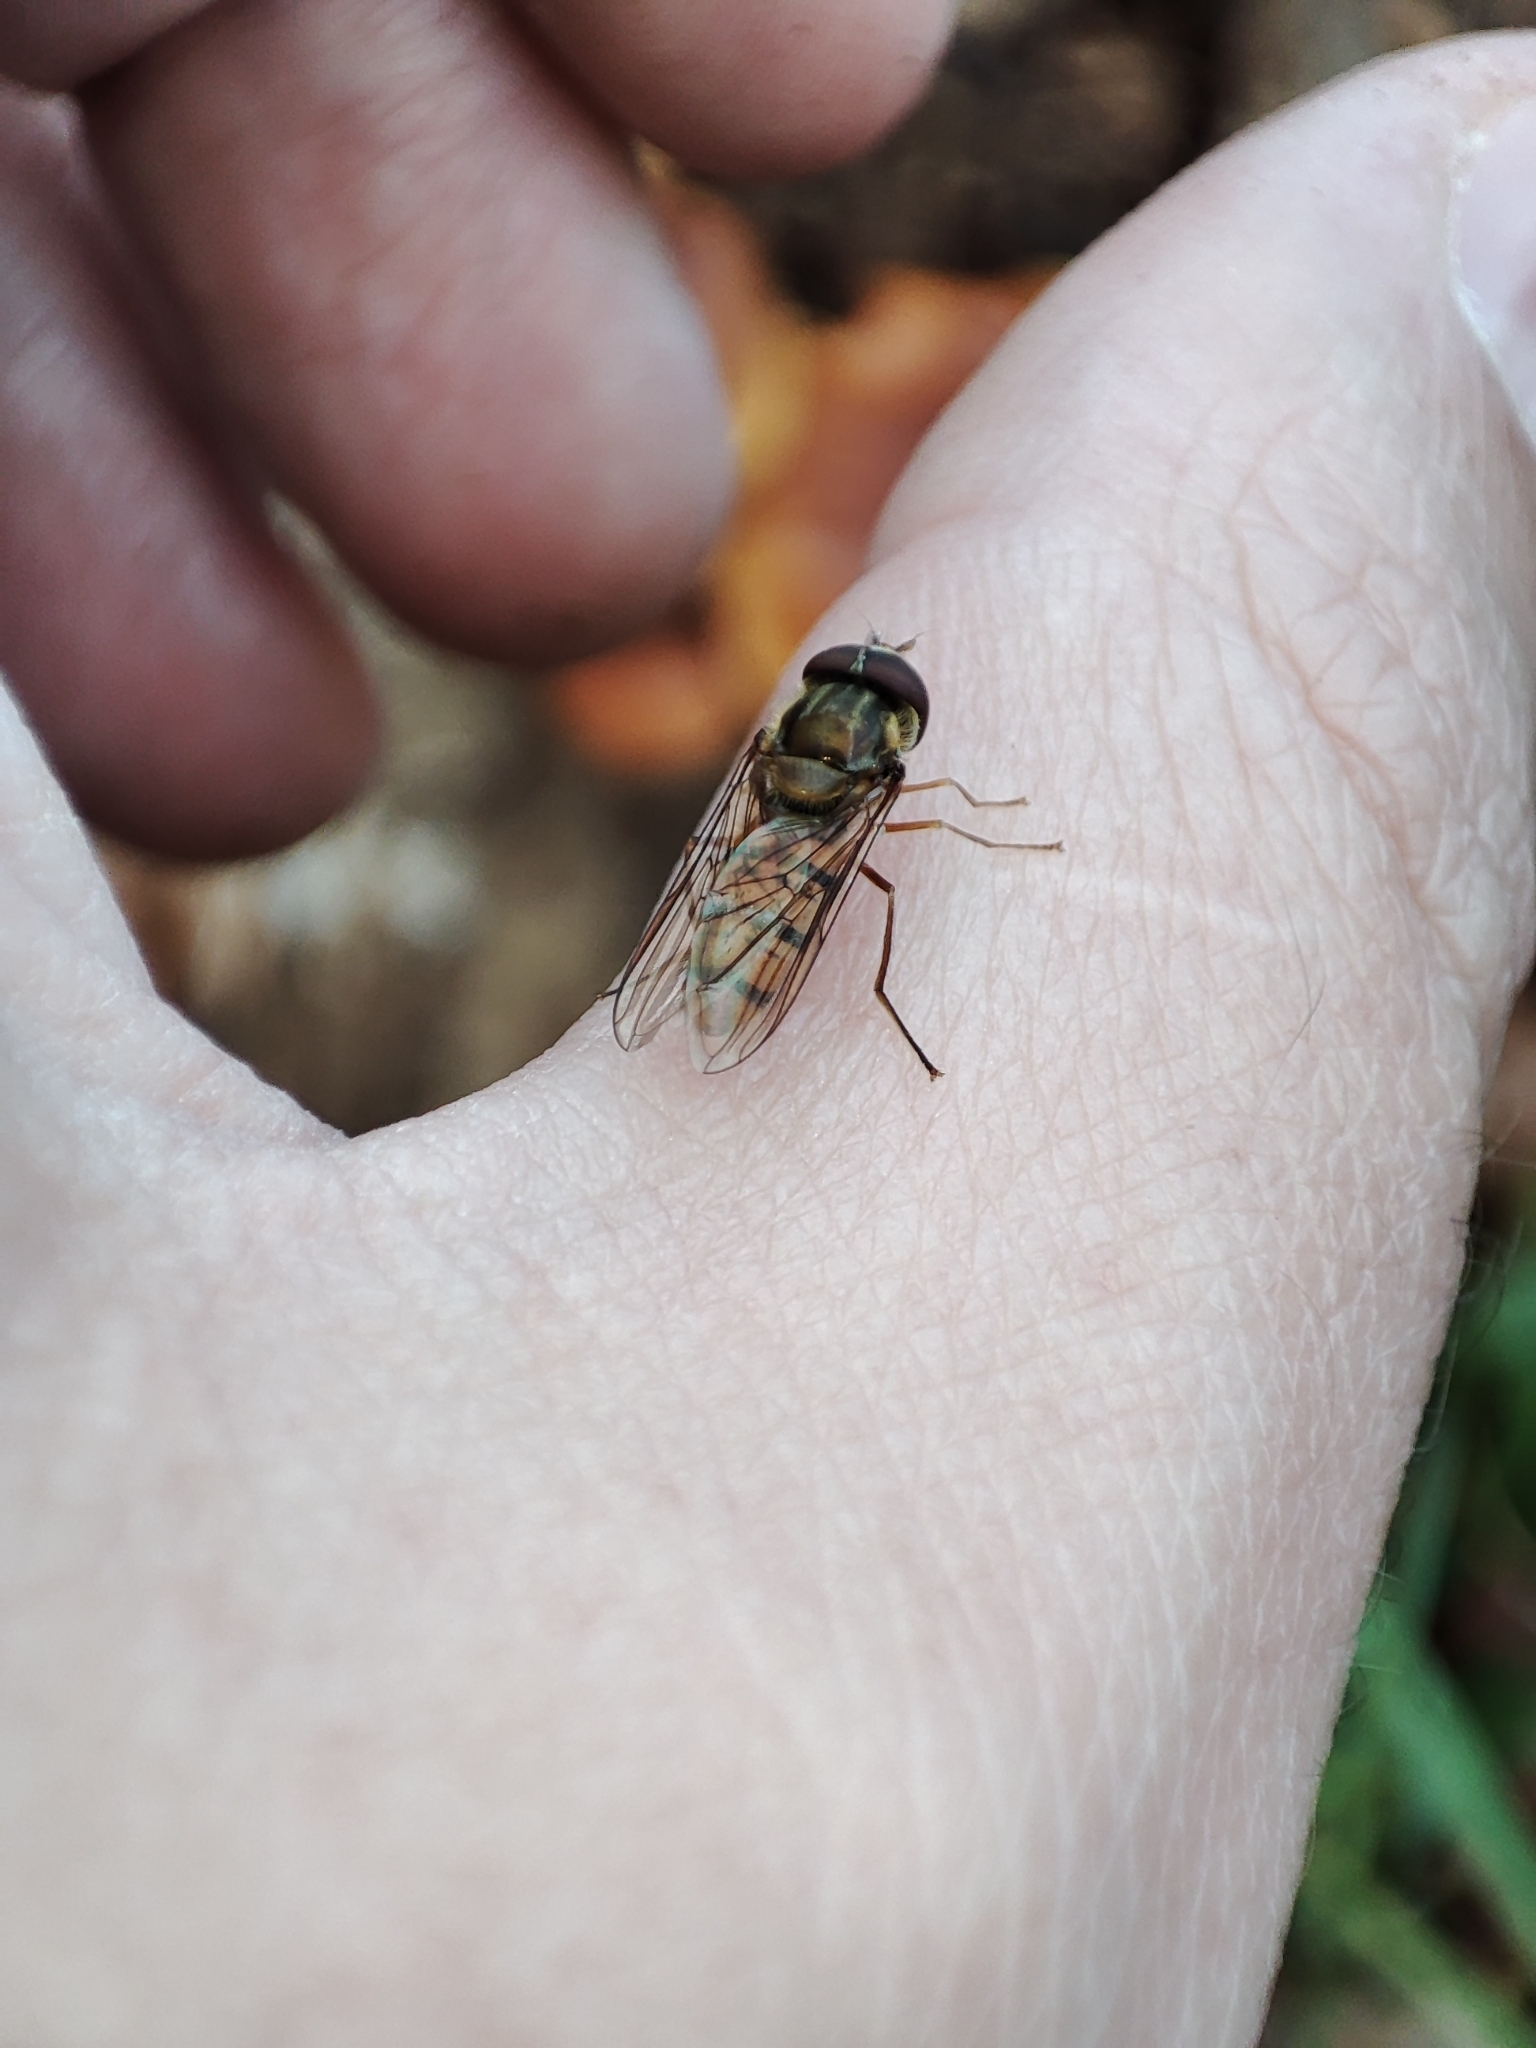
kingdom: Animalia
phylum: Arthropoda
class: Insecta
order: Diptera
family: Syrphidae
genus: Episyrphus
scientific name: Episyrphus balteatus
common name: Marmalade hoverfly
